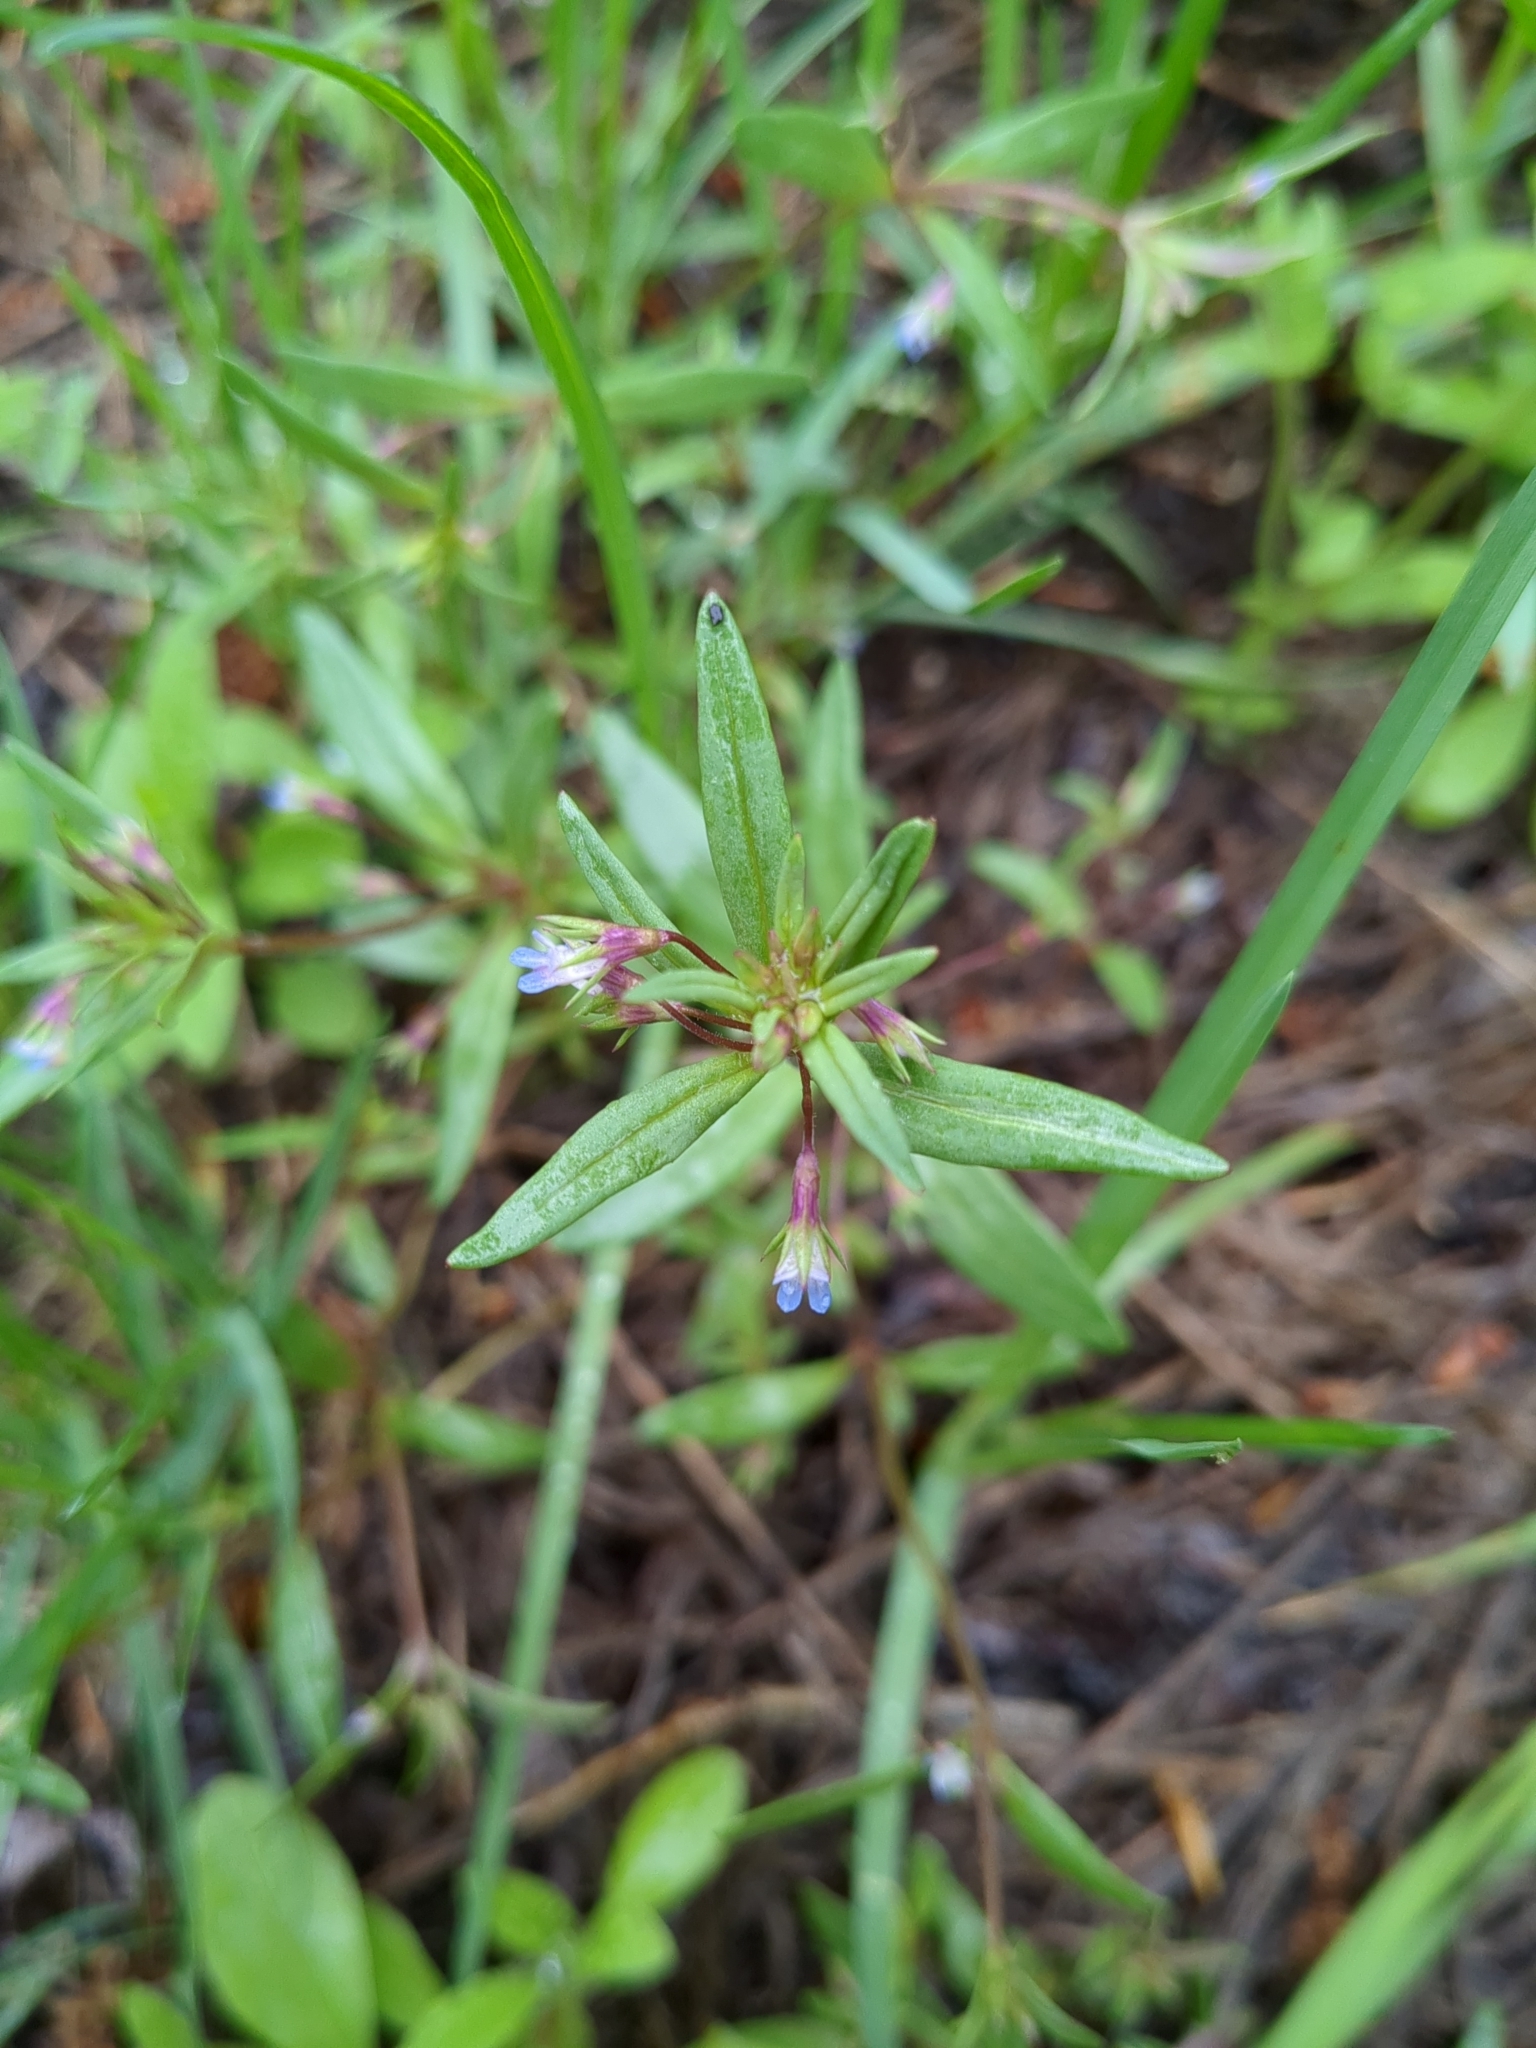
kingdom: Plantae
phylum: Tracheophyta
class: Magnoliopsida
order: Lamiales
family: Plantaginaceae
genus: Collinsia
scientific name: Collinsia parviflora
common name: Blue-lips
